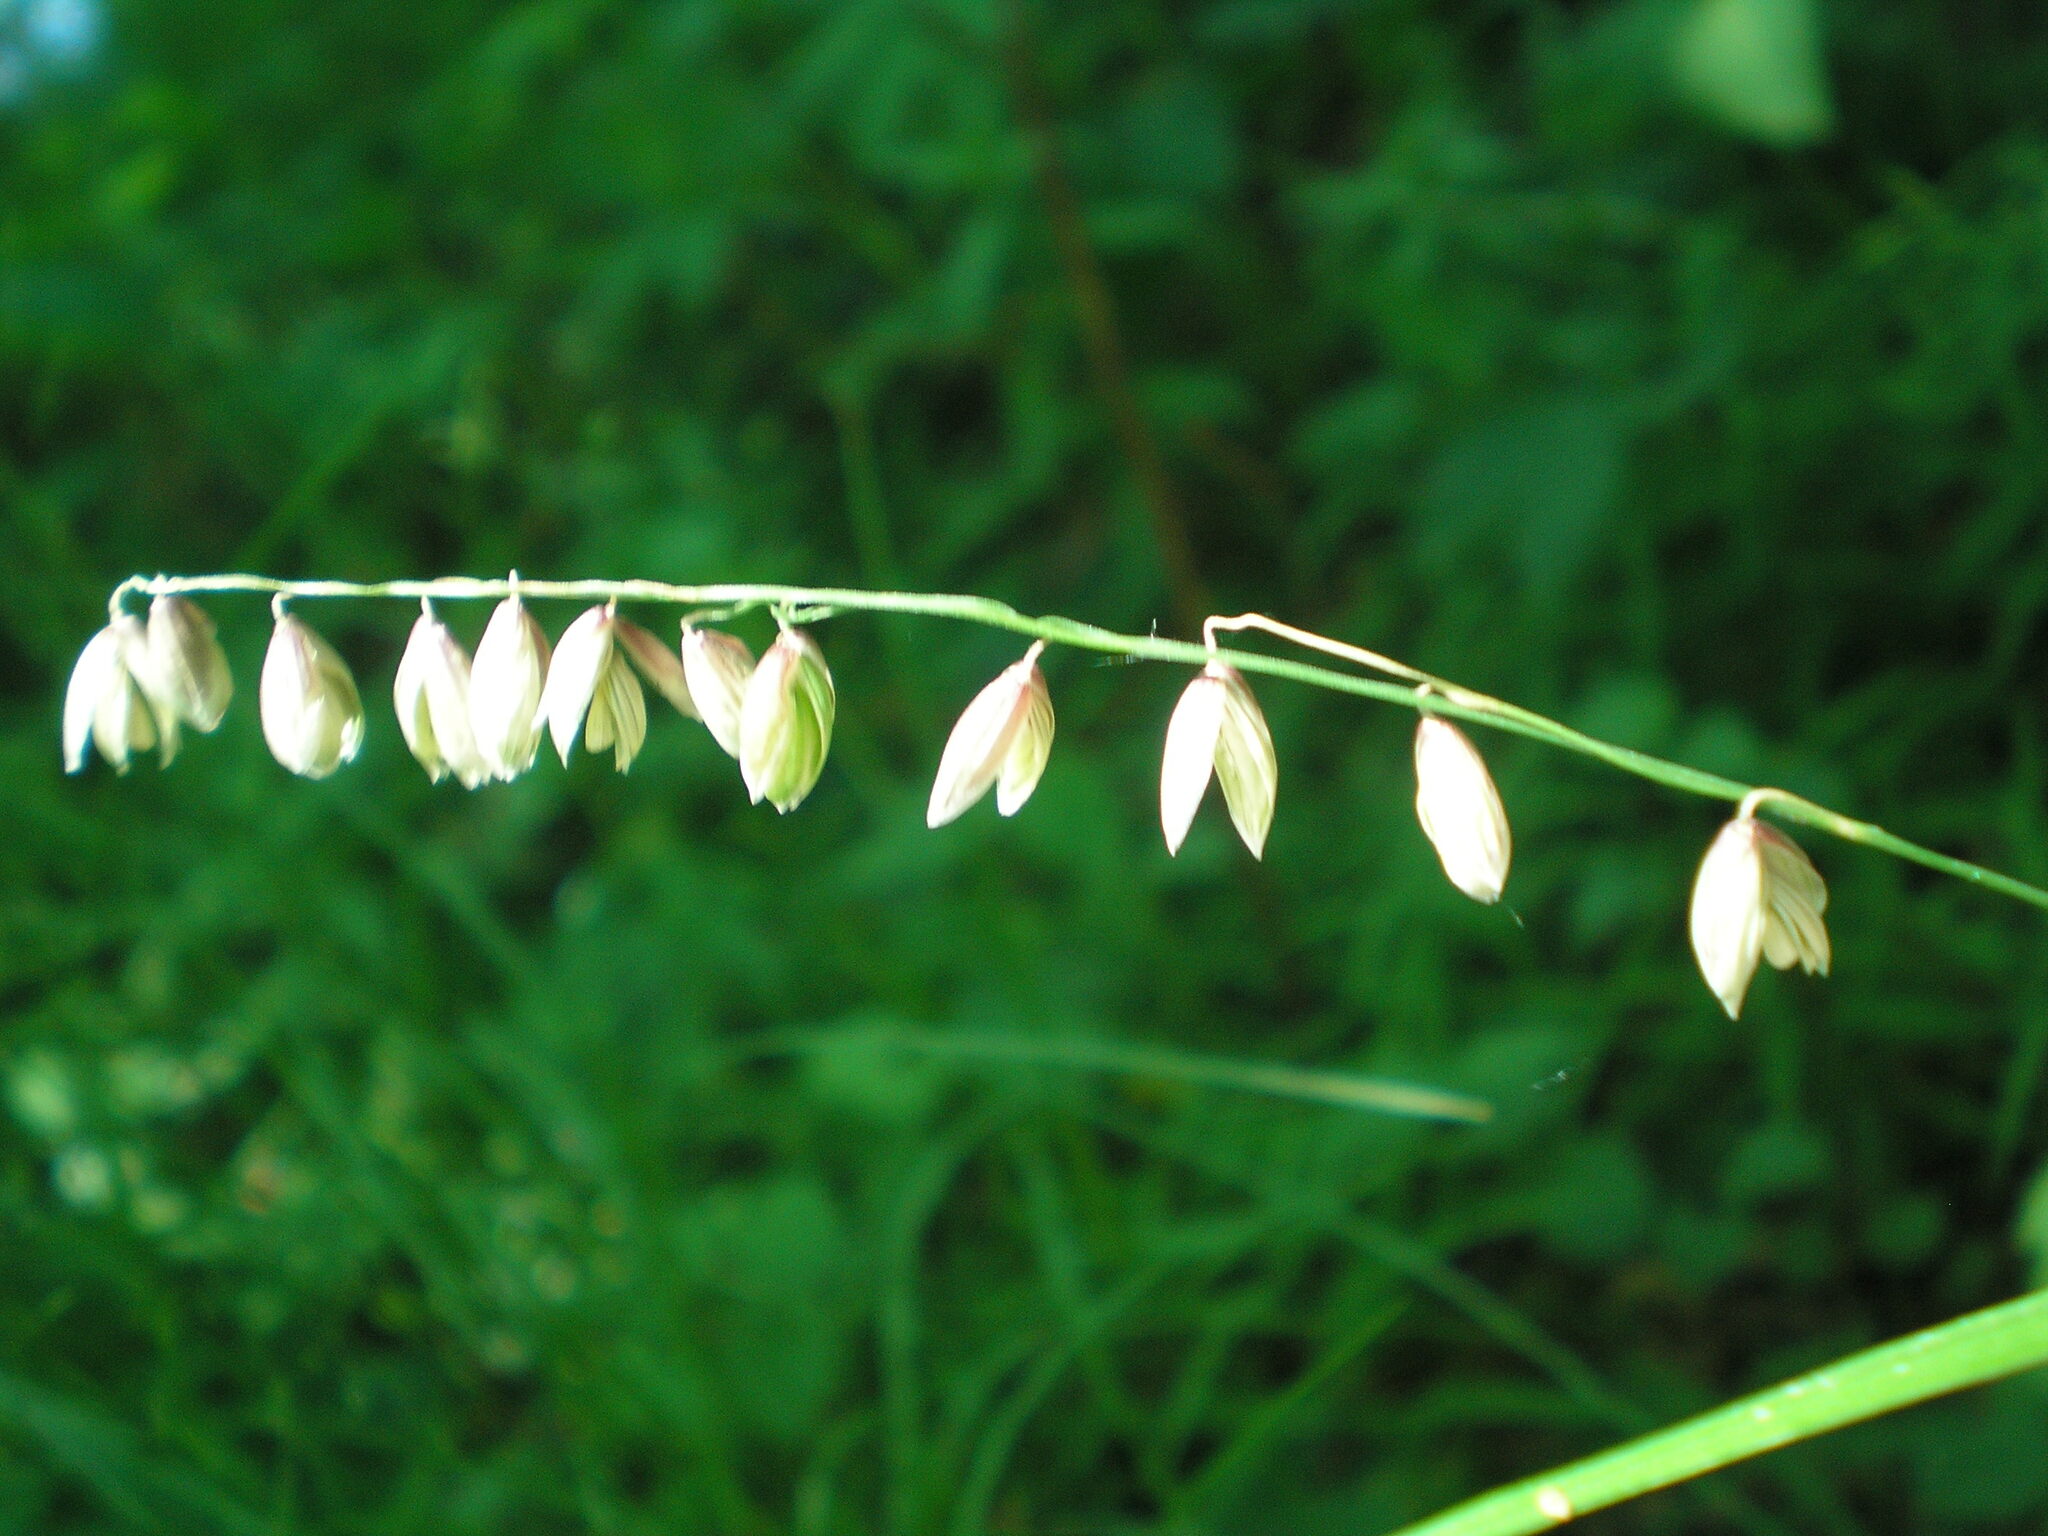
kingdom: Plantae
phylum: Tracheophyta
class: Liliopsida
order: Poales
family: Poaceae
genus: Melica
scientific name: Melica nutans
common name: Mountain melick
